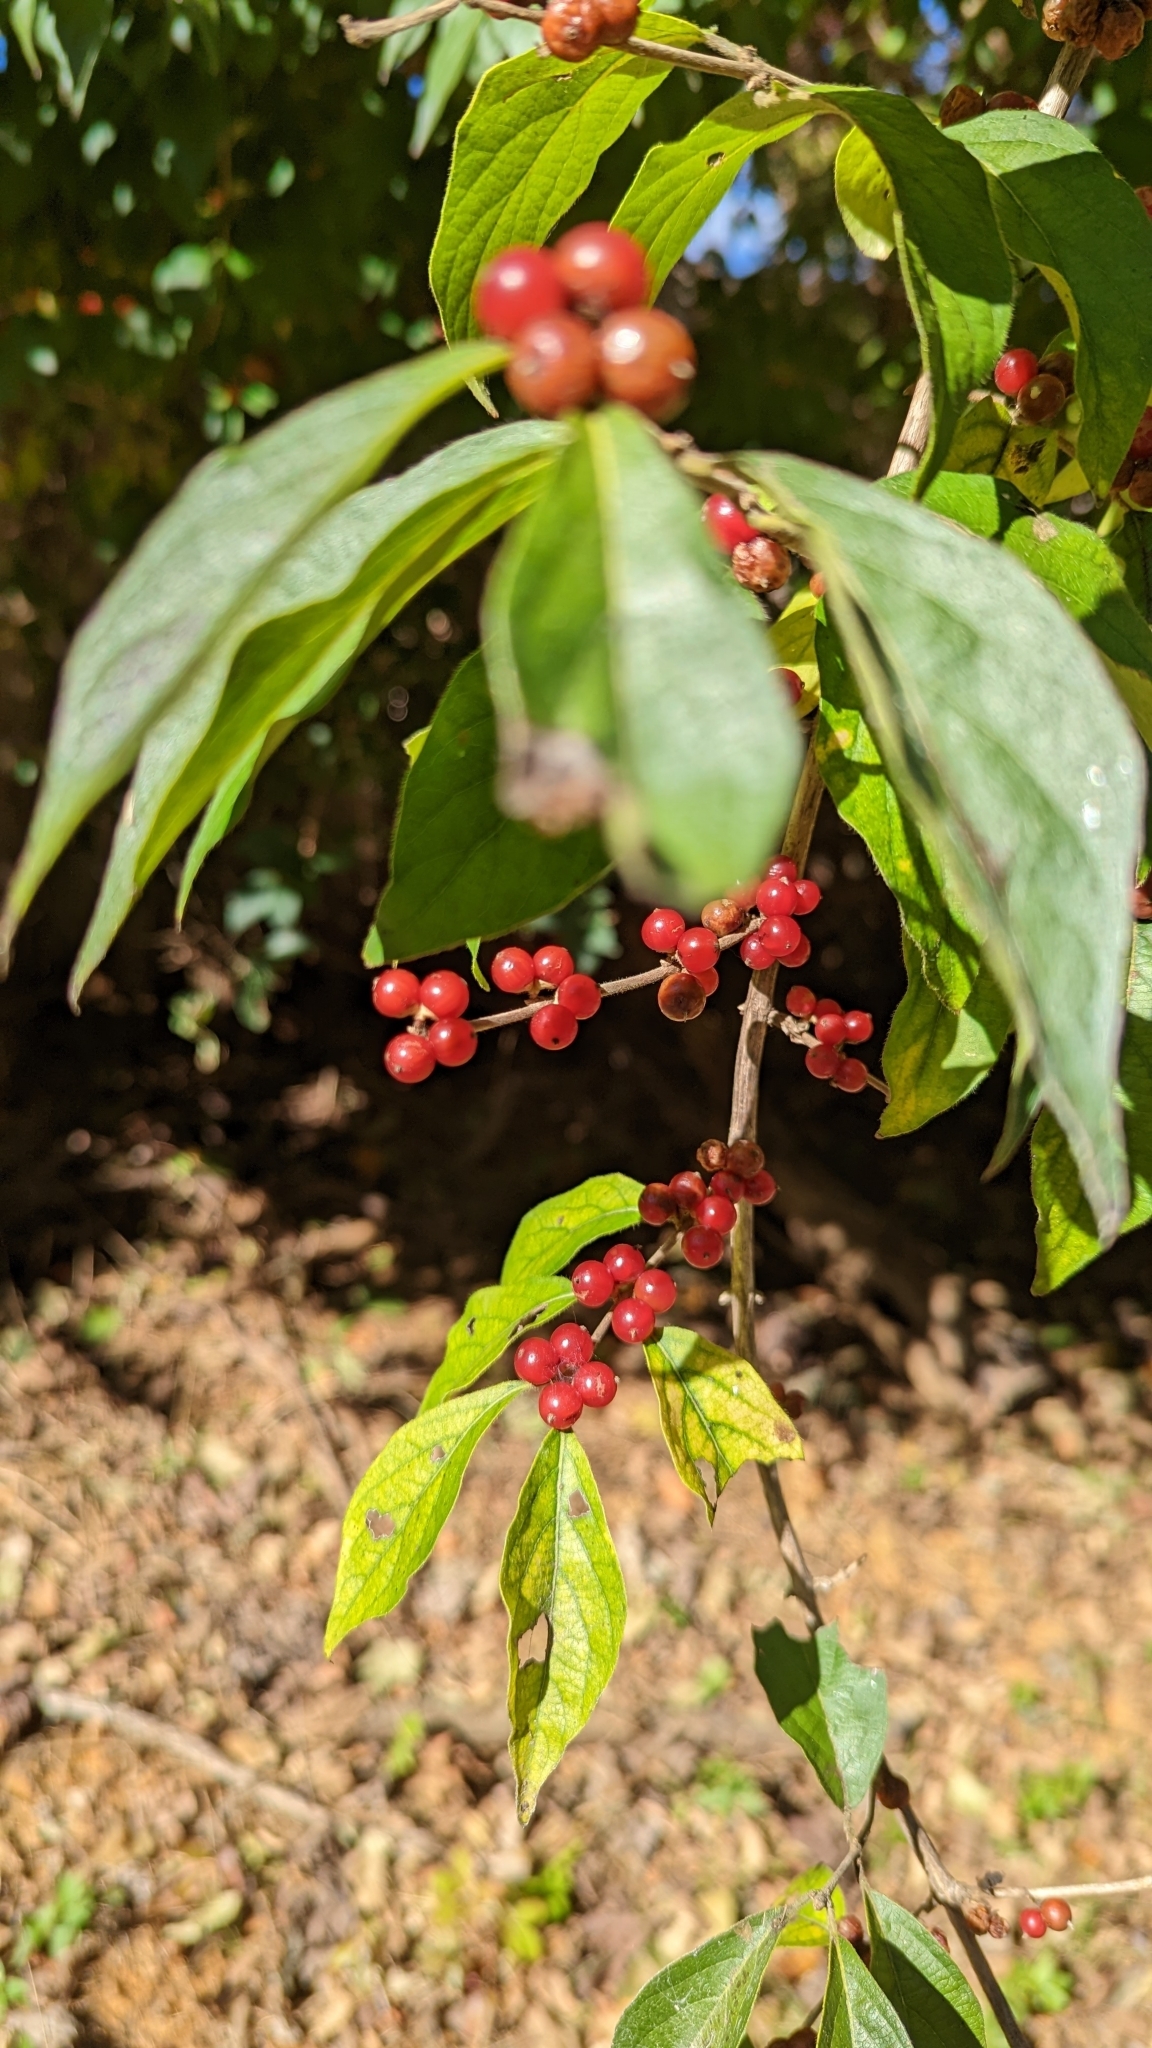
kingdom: Plantae
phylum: Tracheophyta
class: Magnoliopsida
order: Dipsacales
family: Caprifoliaceae
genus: Lonicera
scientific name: Lonicera maackii
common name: Amur honeysuckle
